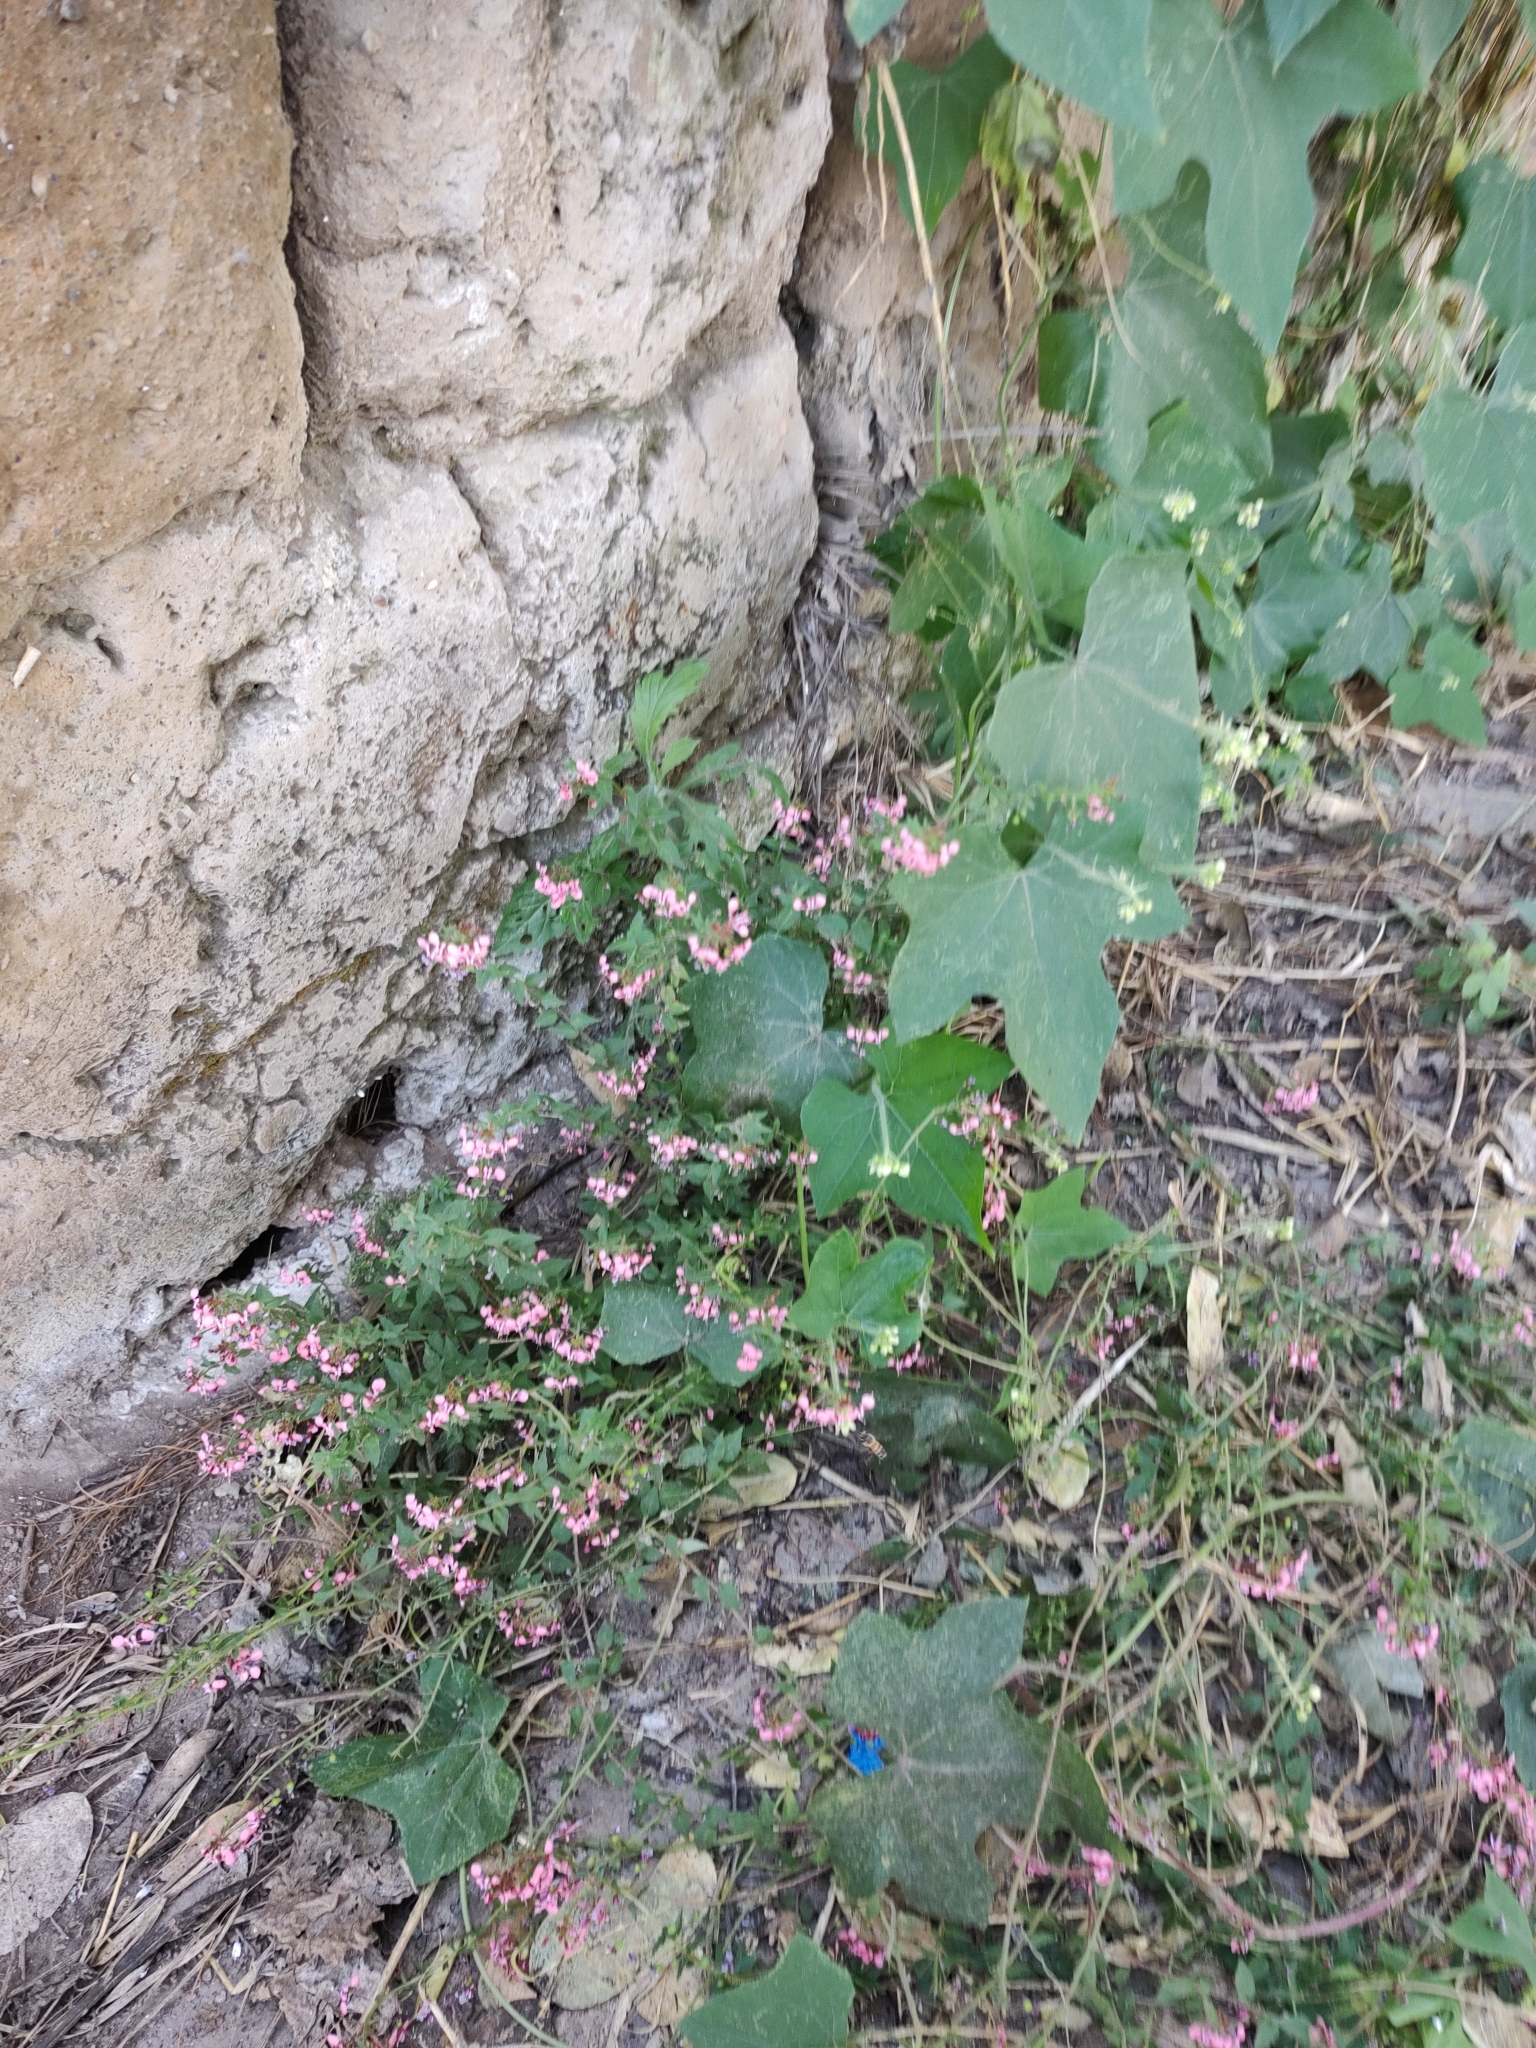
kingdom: Plantae
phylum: Tracheophyta
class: Magnoliopsida
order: Myrtales
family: Onagraceae
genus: Lopezia
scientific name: Lopezia racemosa
